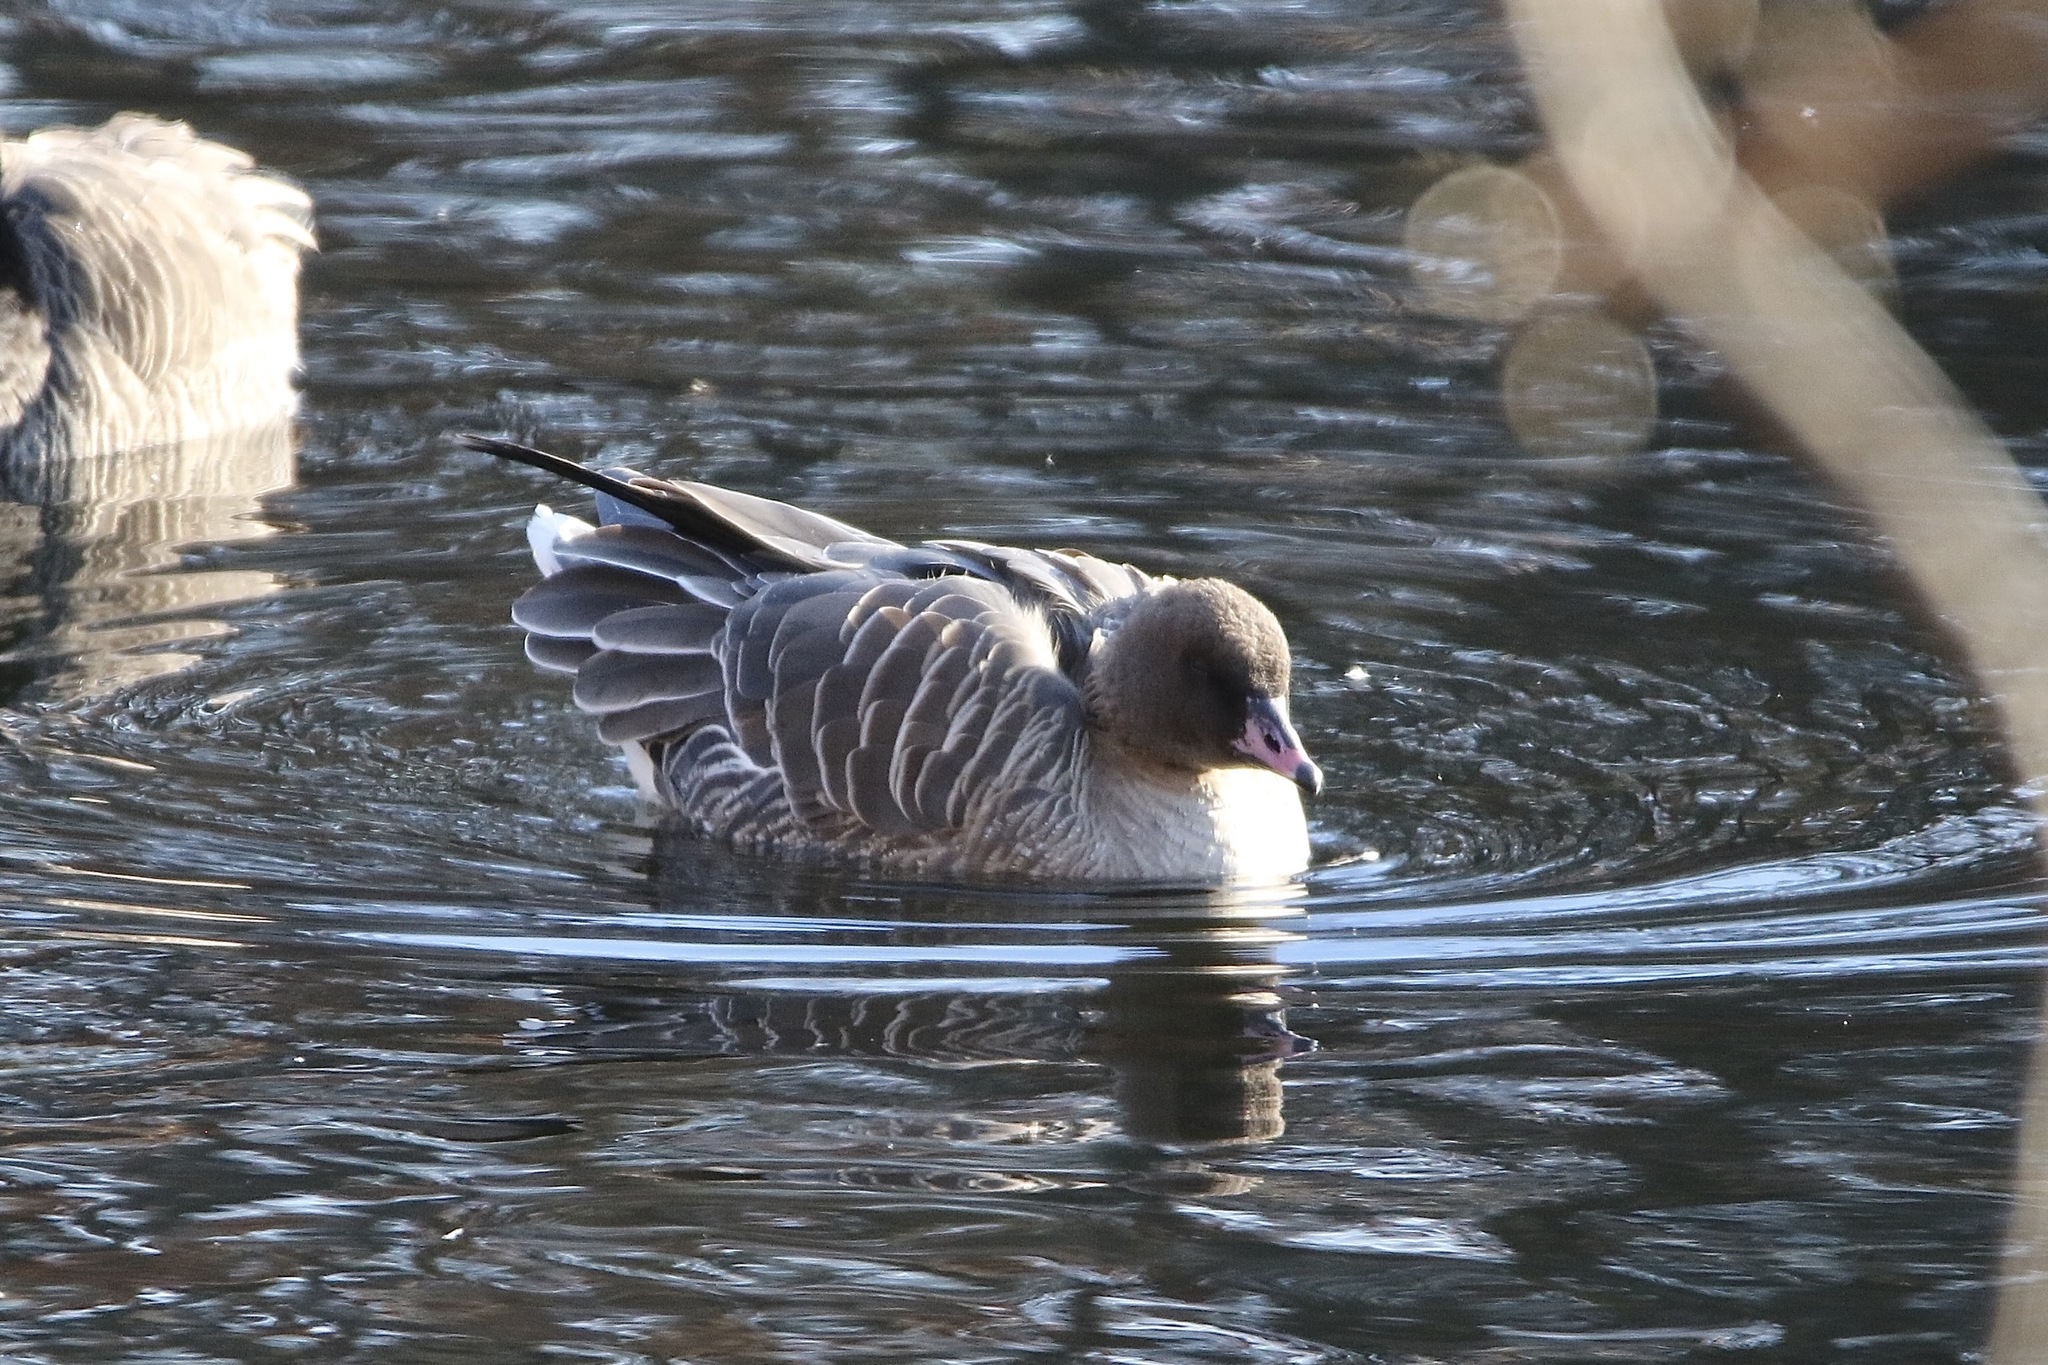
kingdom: Animalia
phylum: Chordata
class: Aves
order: Anseriformes
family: Anatidae
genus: Anser
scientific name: Anser brachyrhynchus
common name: Pink-footed goose
